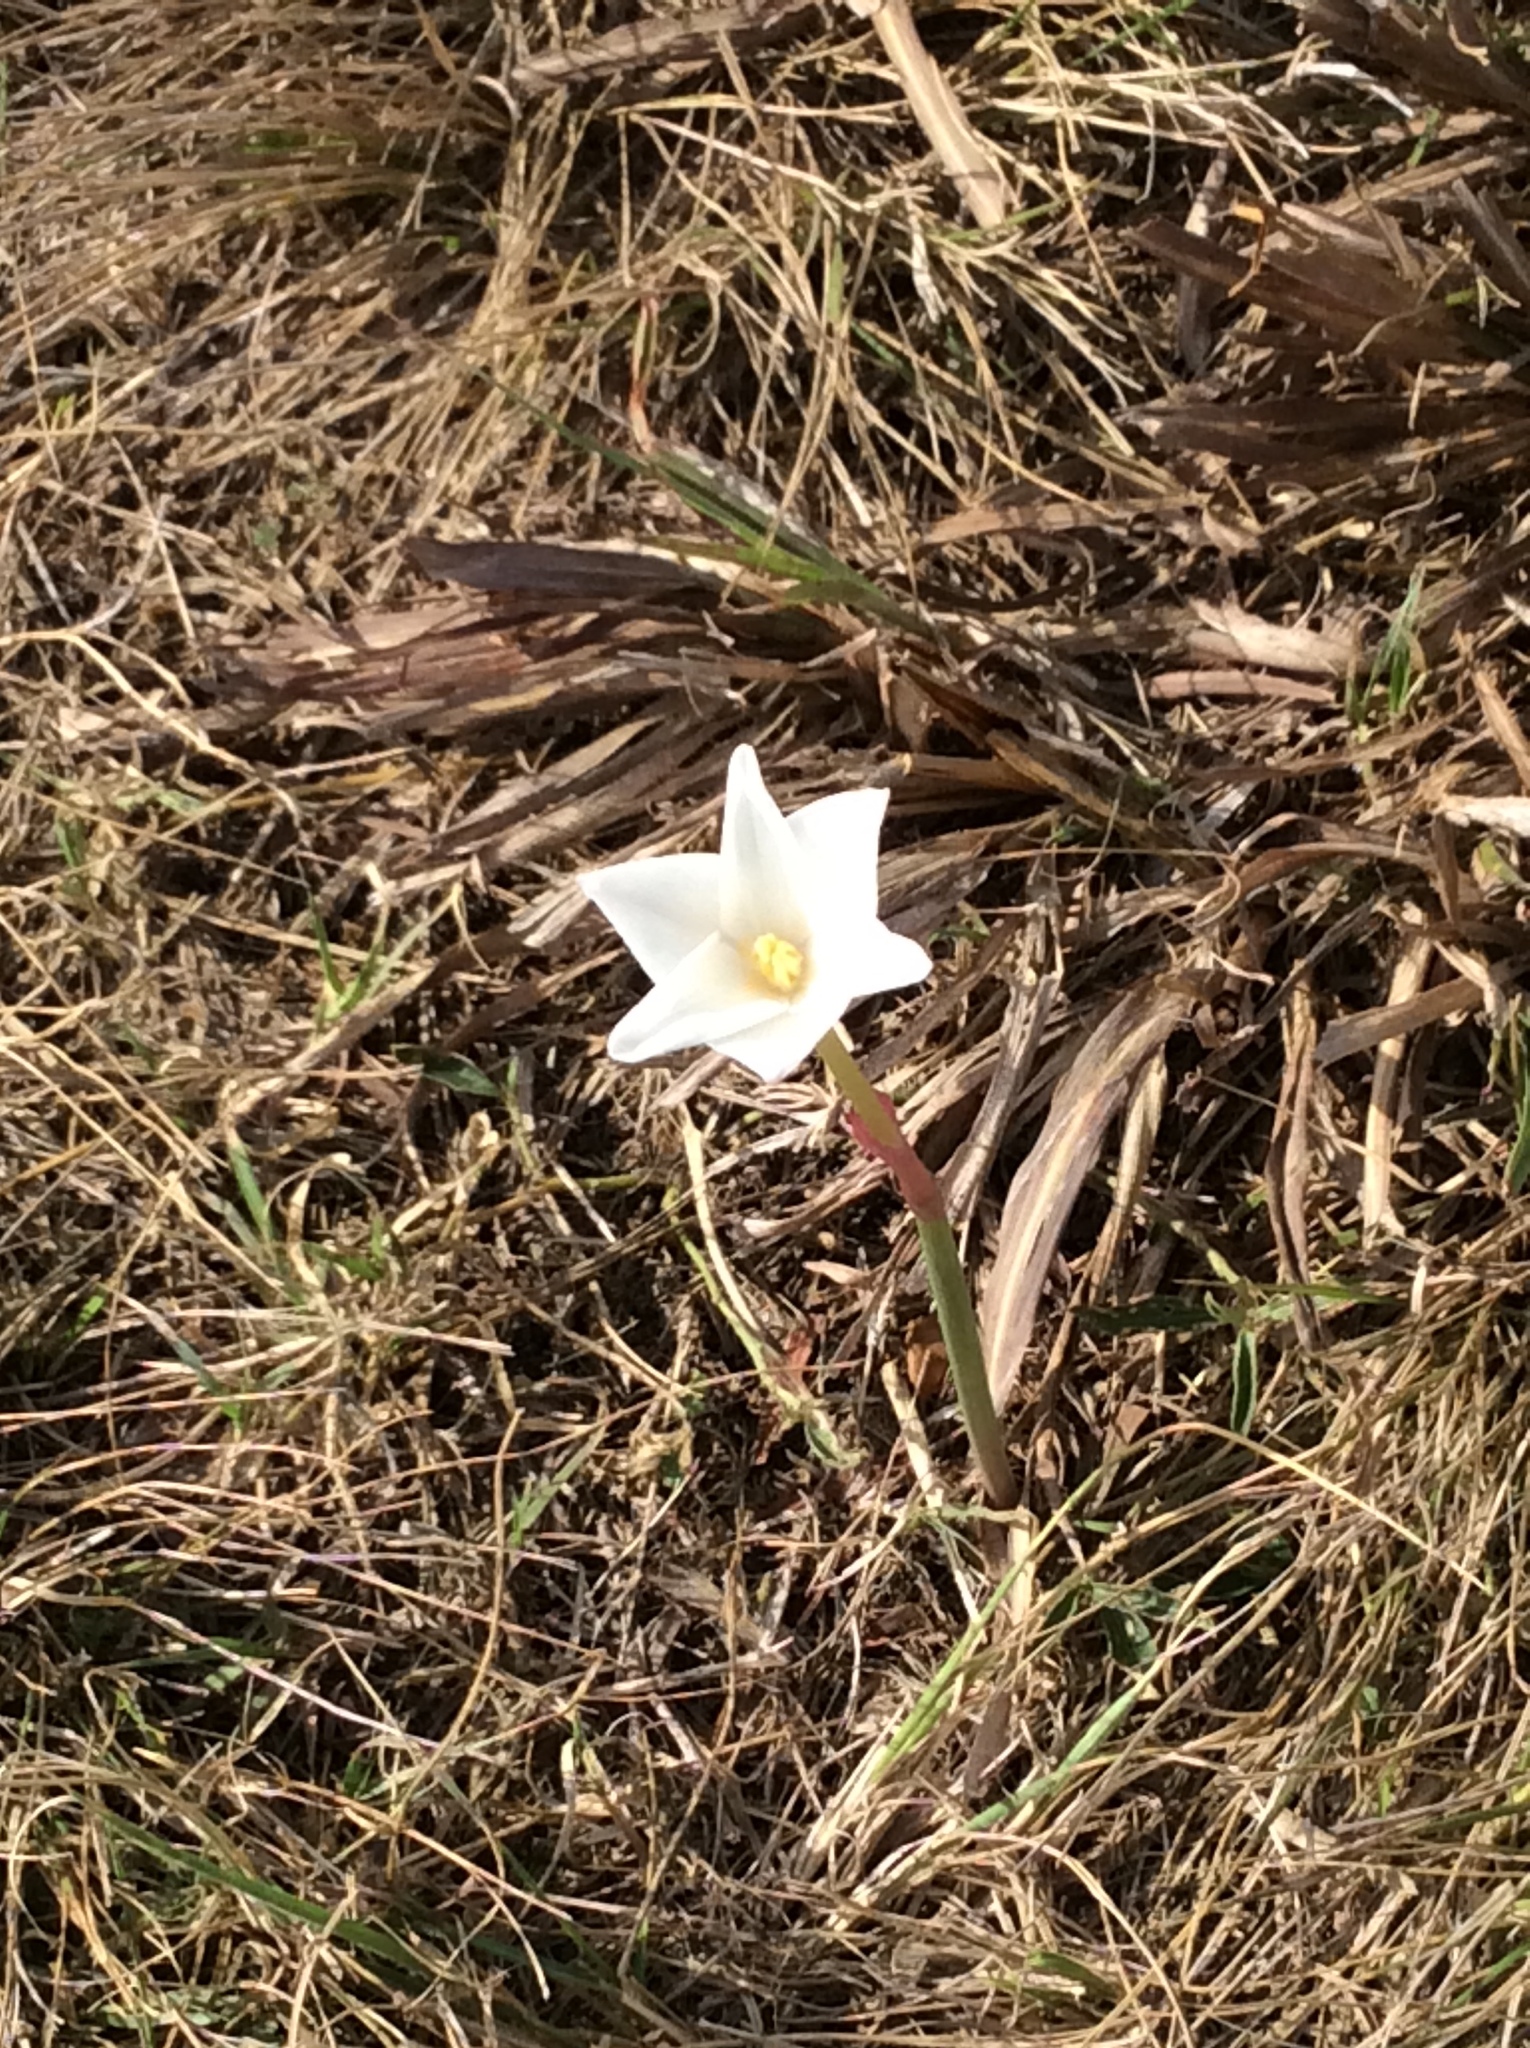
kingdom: Plantae
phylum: Tracheophyta
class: Liliopsida
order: Asparagales
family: Amaryllidaceae
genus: Zephyranthes
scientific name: Zephyranthes chlorosolen
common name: Evening rain-lily
